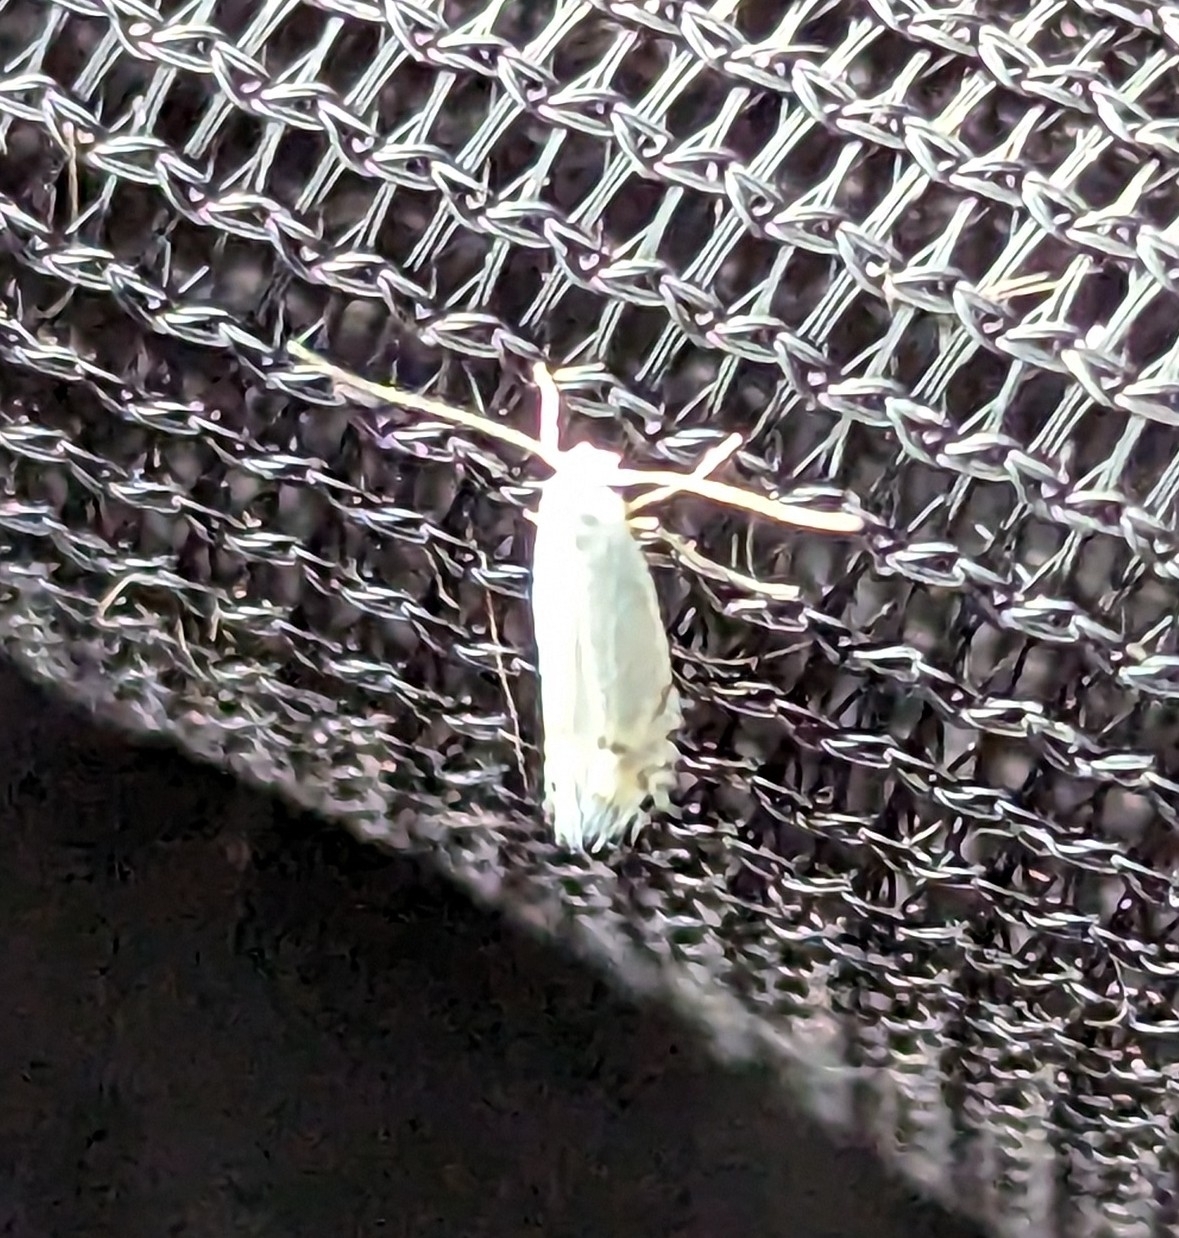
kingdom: Animalia
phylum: Arthropoda
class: Insecta
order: Lepidoptera
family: Gracillariidae
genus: Phyllocnistis
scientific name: Phyllocnistis populiella
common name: Aspen serpentine leafminer moth
